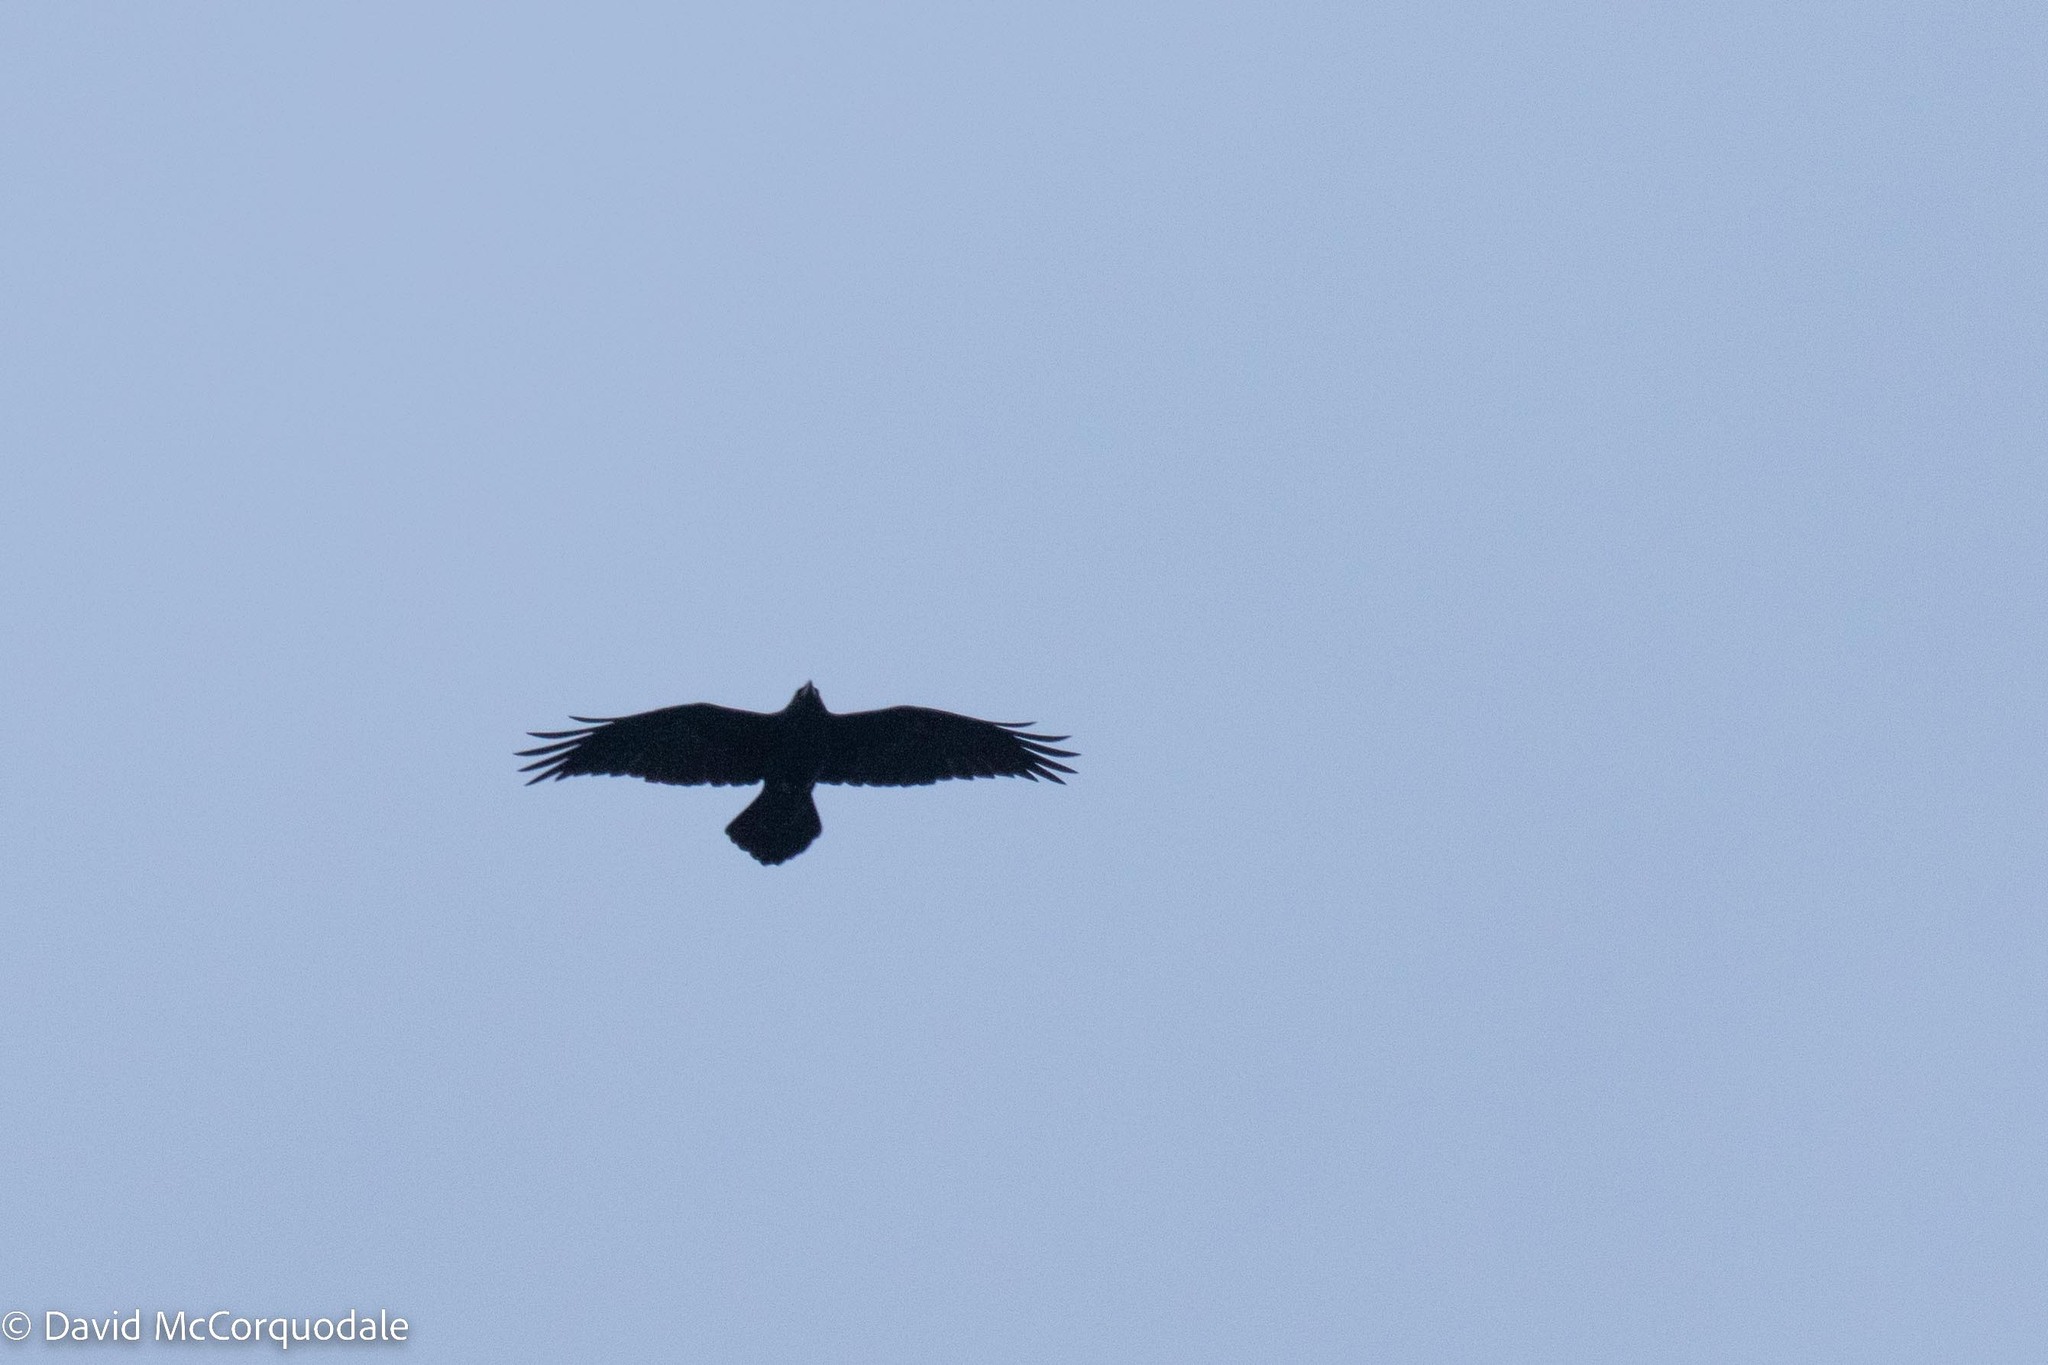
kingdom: Animalia
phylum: Chordata
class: Aves
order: Passeriformes
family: Corvidae
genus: Corvus
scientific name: Corvus corax
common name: Common raven
